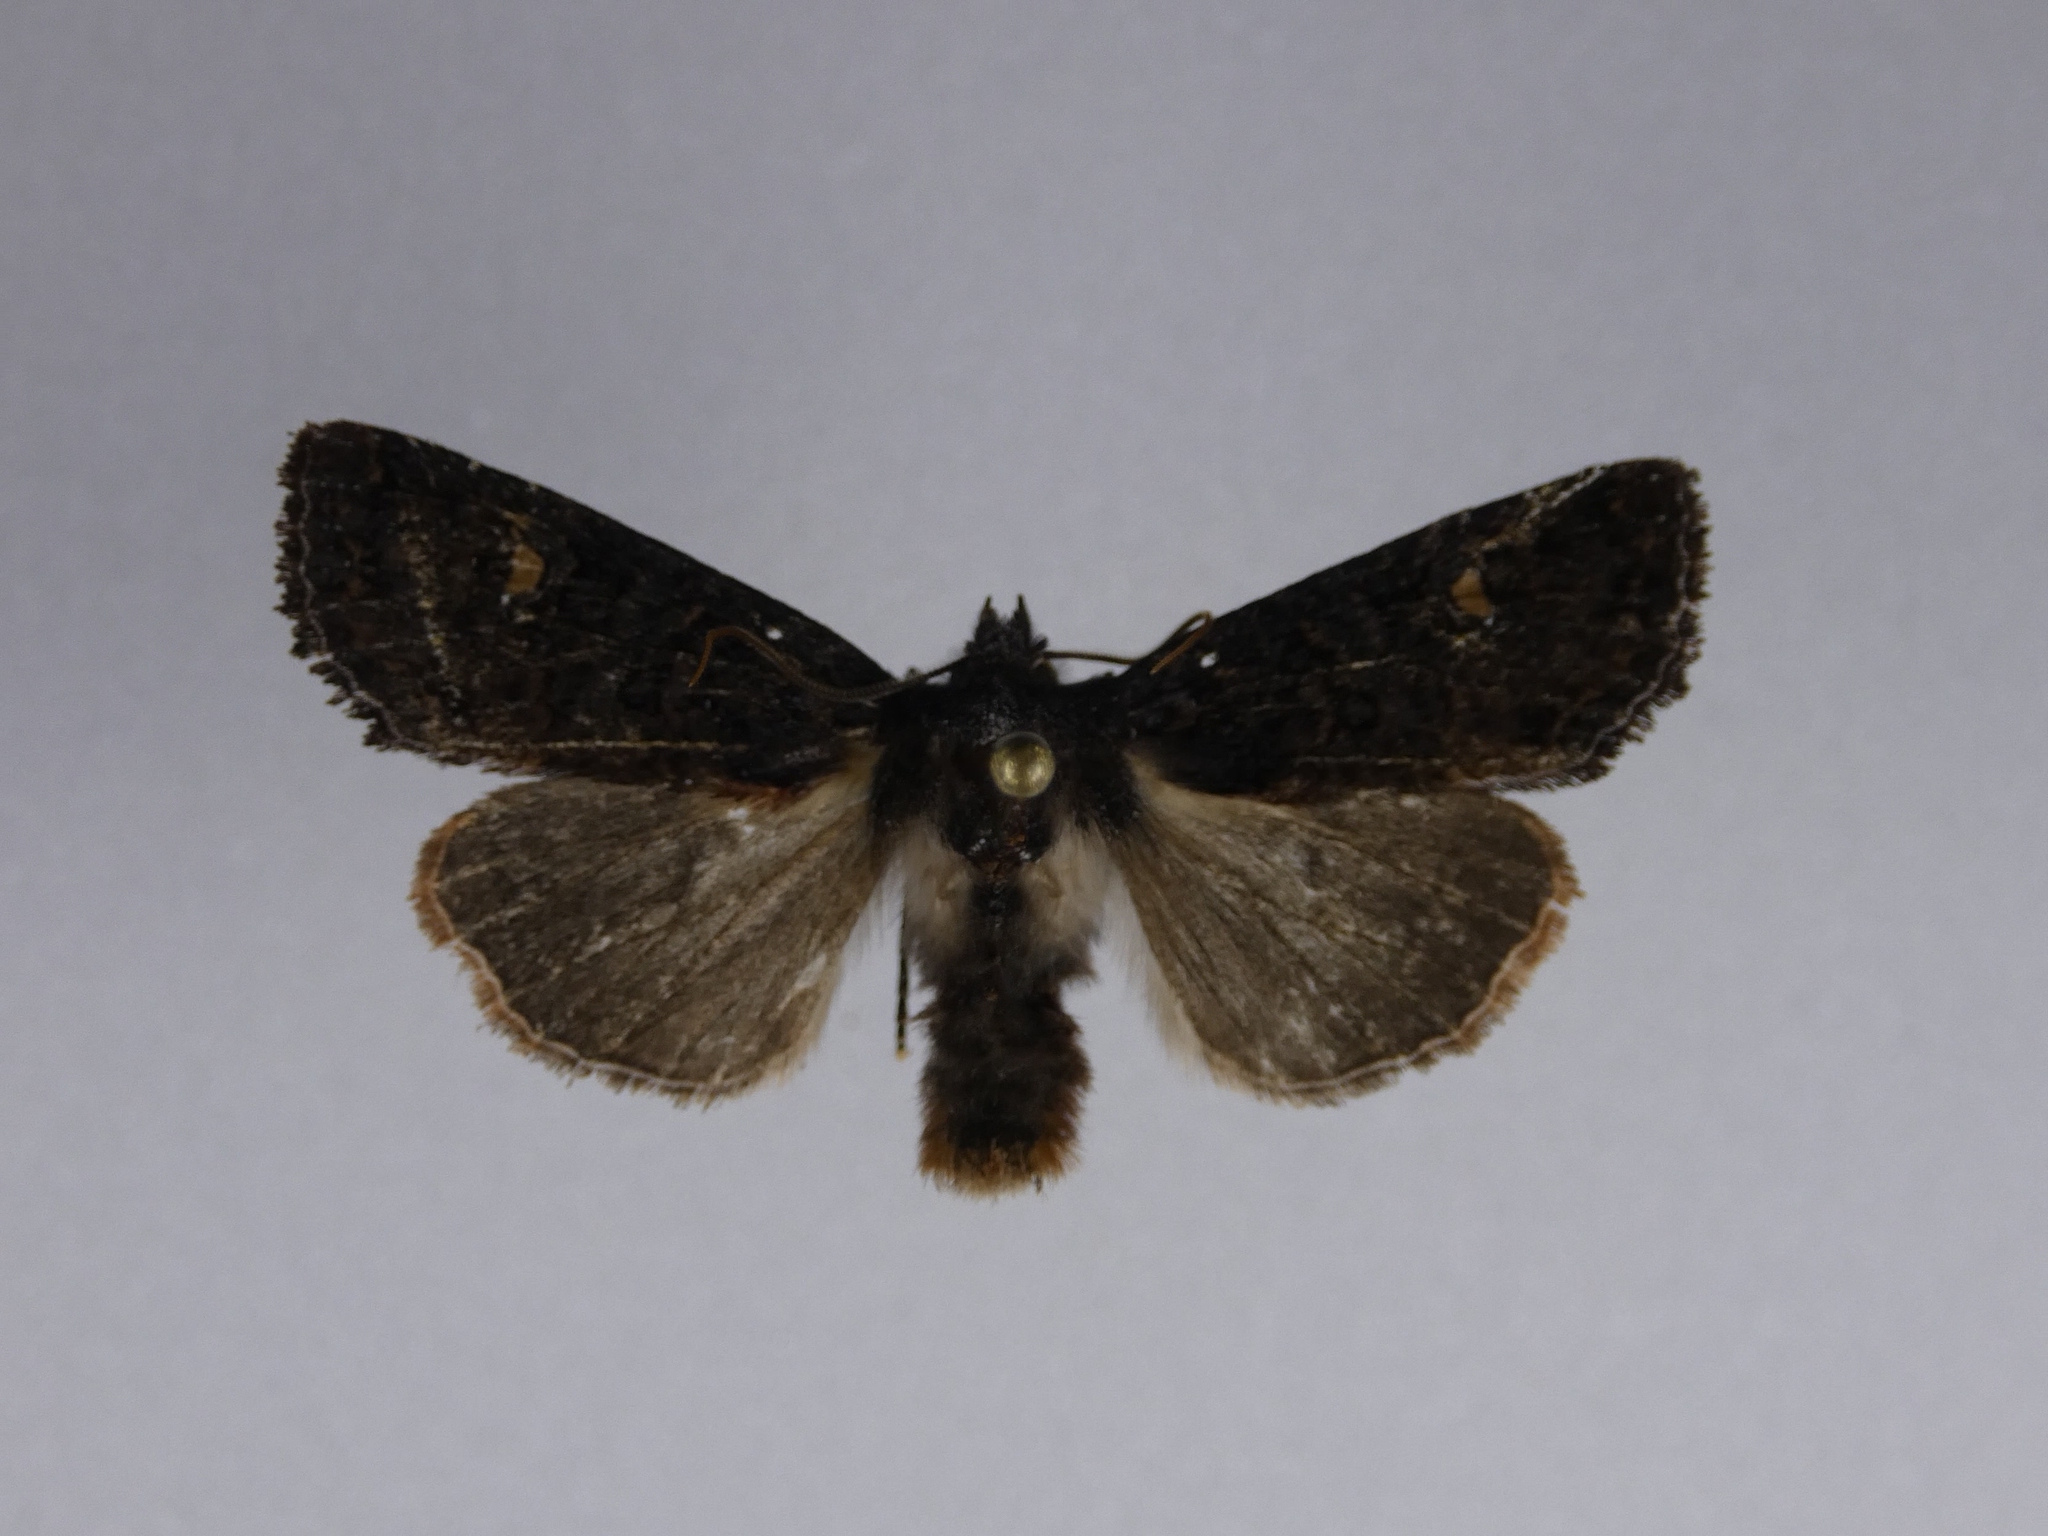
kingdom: Animalia
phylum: Arthropoda
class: Insecta
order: Lepidoptera
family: Noctuidae
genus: Meterana
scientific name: Meterana vitiosa
